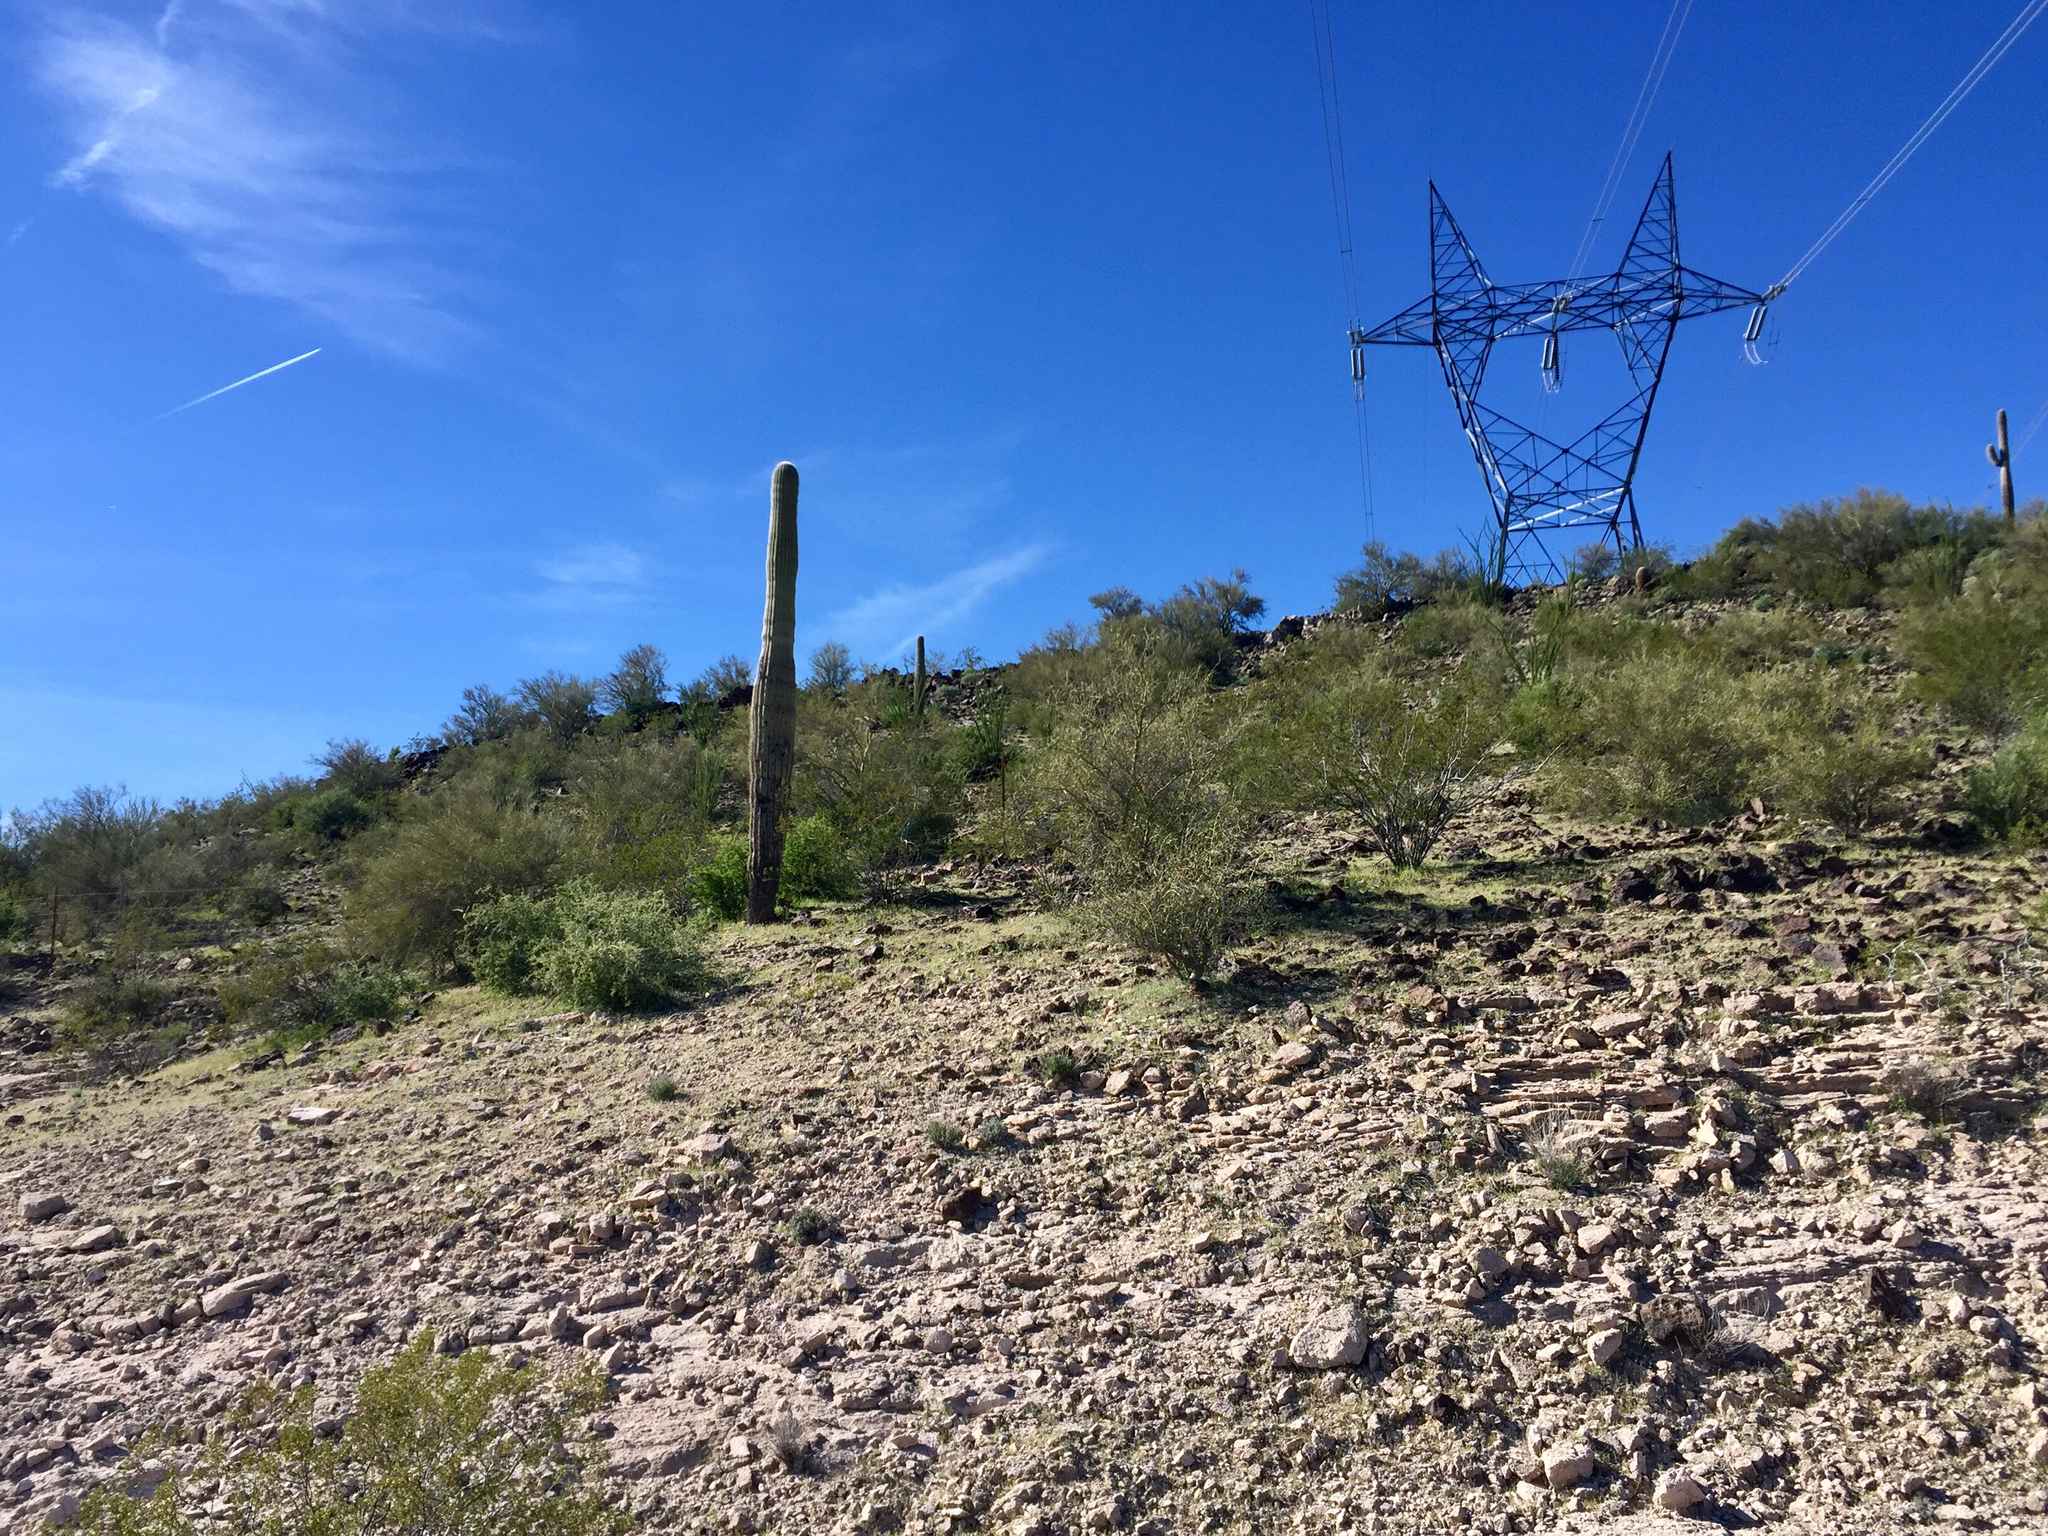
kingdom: Plantae
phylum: Tracheophyta
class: Magnoliopsida
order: Caryophyllales
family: Cactaceae
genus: Carnegiea
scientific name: Carnegiea gigantea
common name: Saguaro
